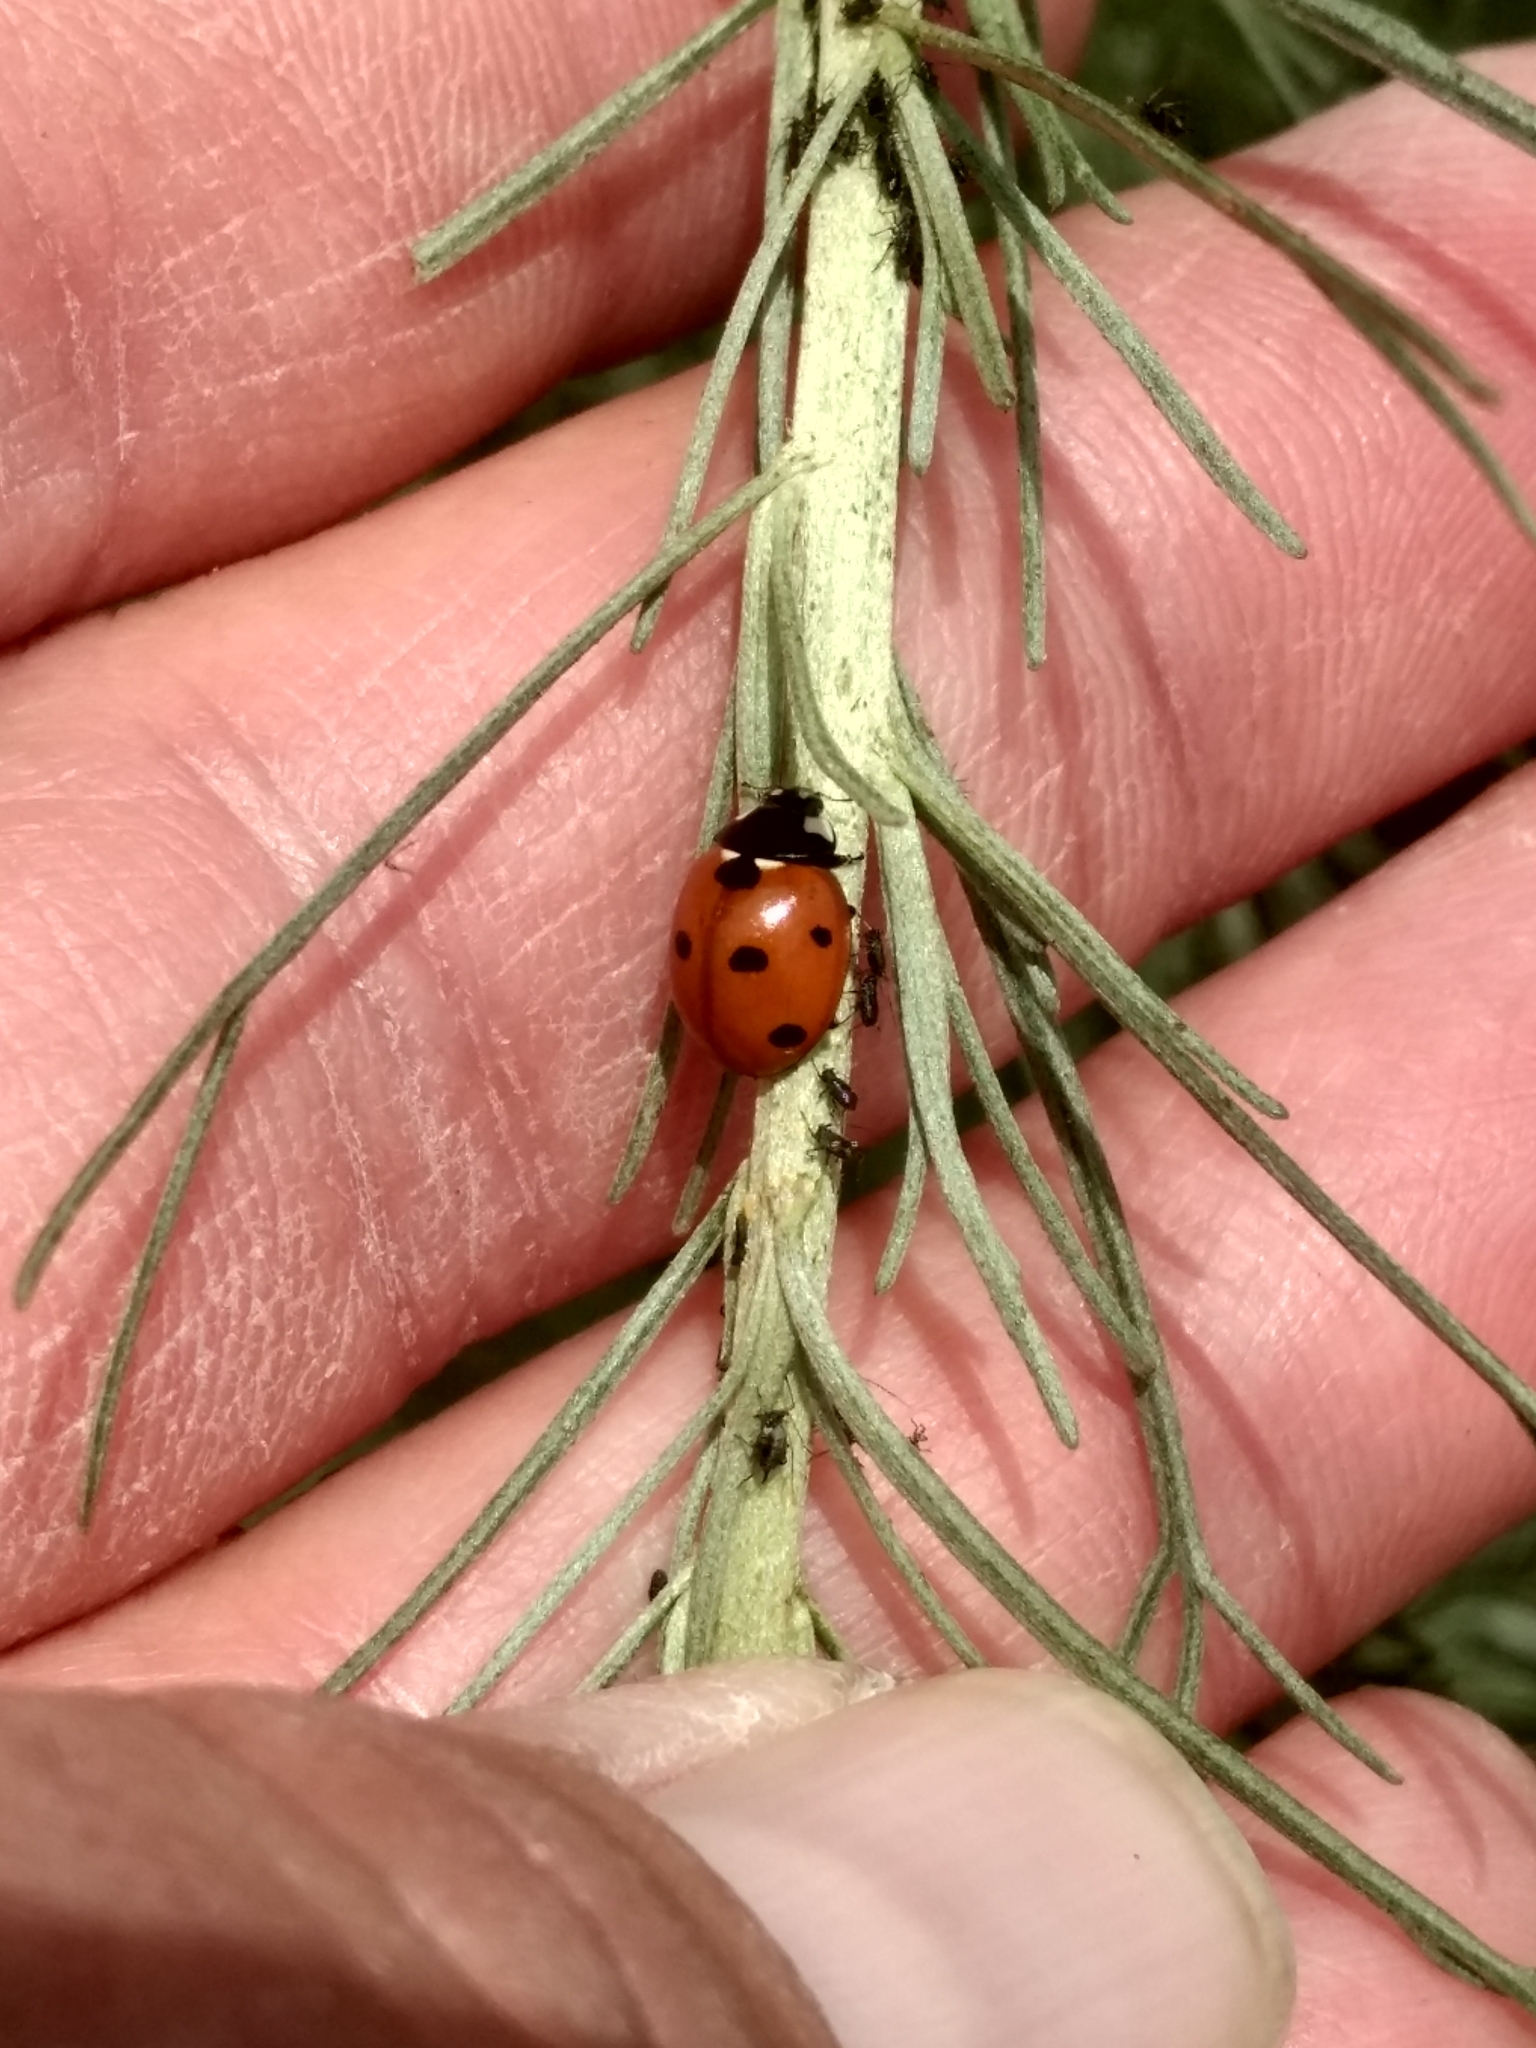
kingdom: Animalia
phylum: Arthropoda
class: Insecta
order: Coleoptera
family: Coccinellidae
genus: Coccinella
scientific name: Coccinella septempunctata
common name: Sevenspotted lady beetle
